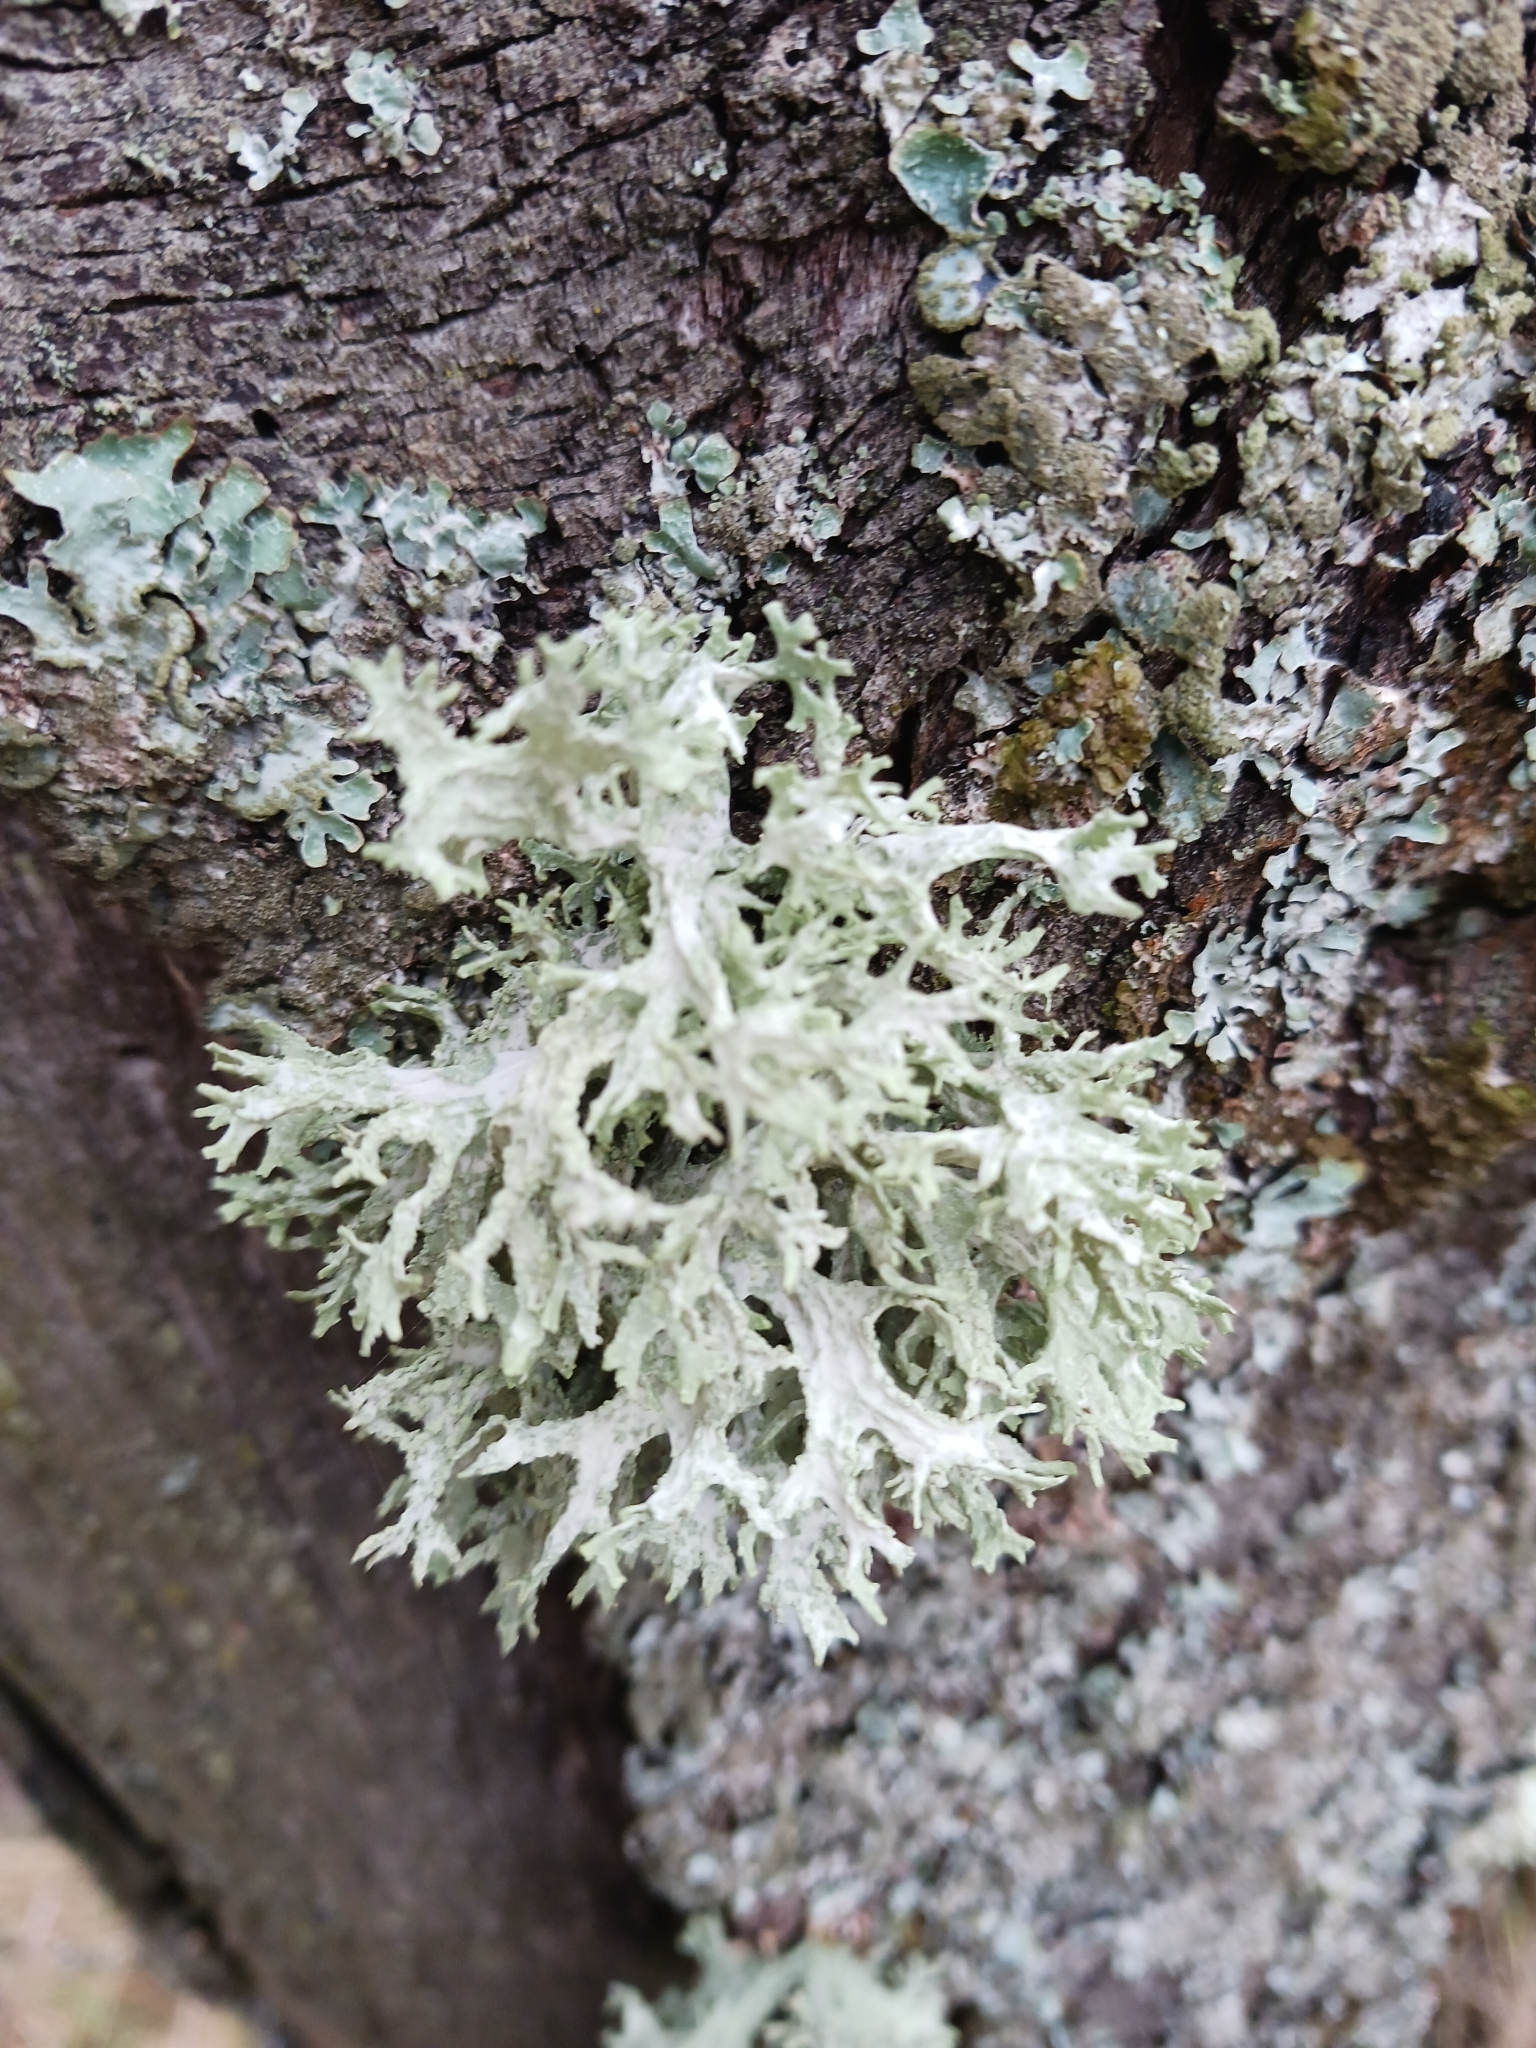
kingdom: Fungi
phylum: Ascomycota
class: Lecanoromycetes
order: Lecanorales
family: Parmeliaceae
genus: Evernia
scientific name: Evernia prunastri
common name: Oak moss
